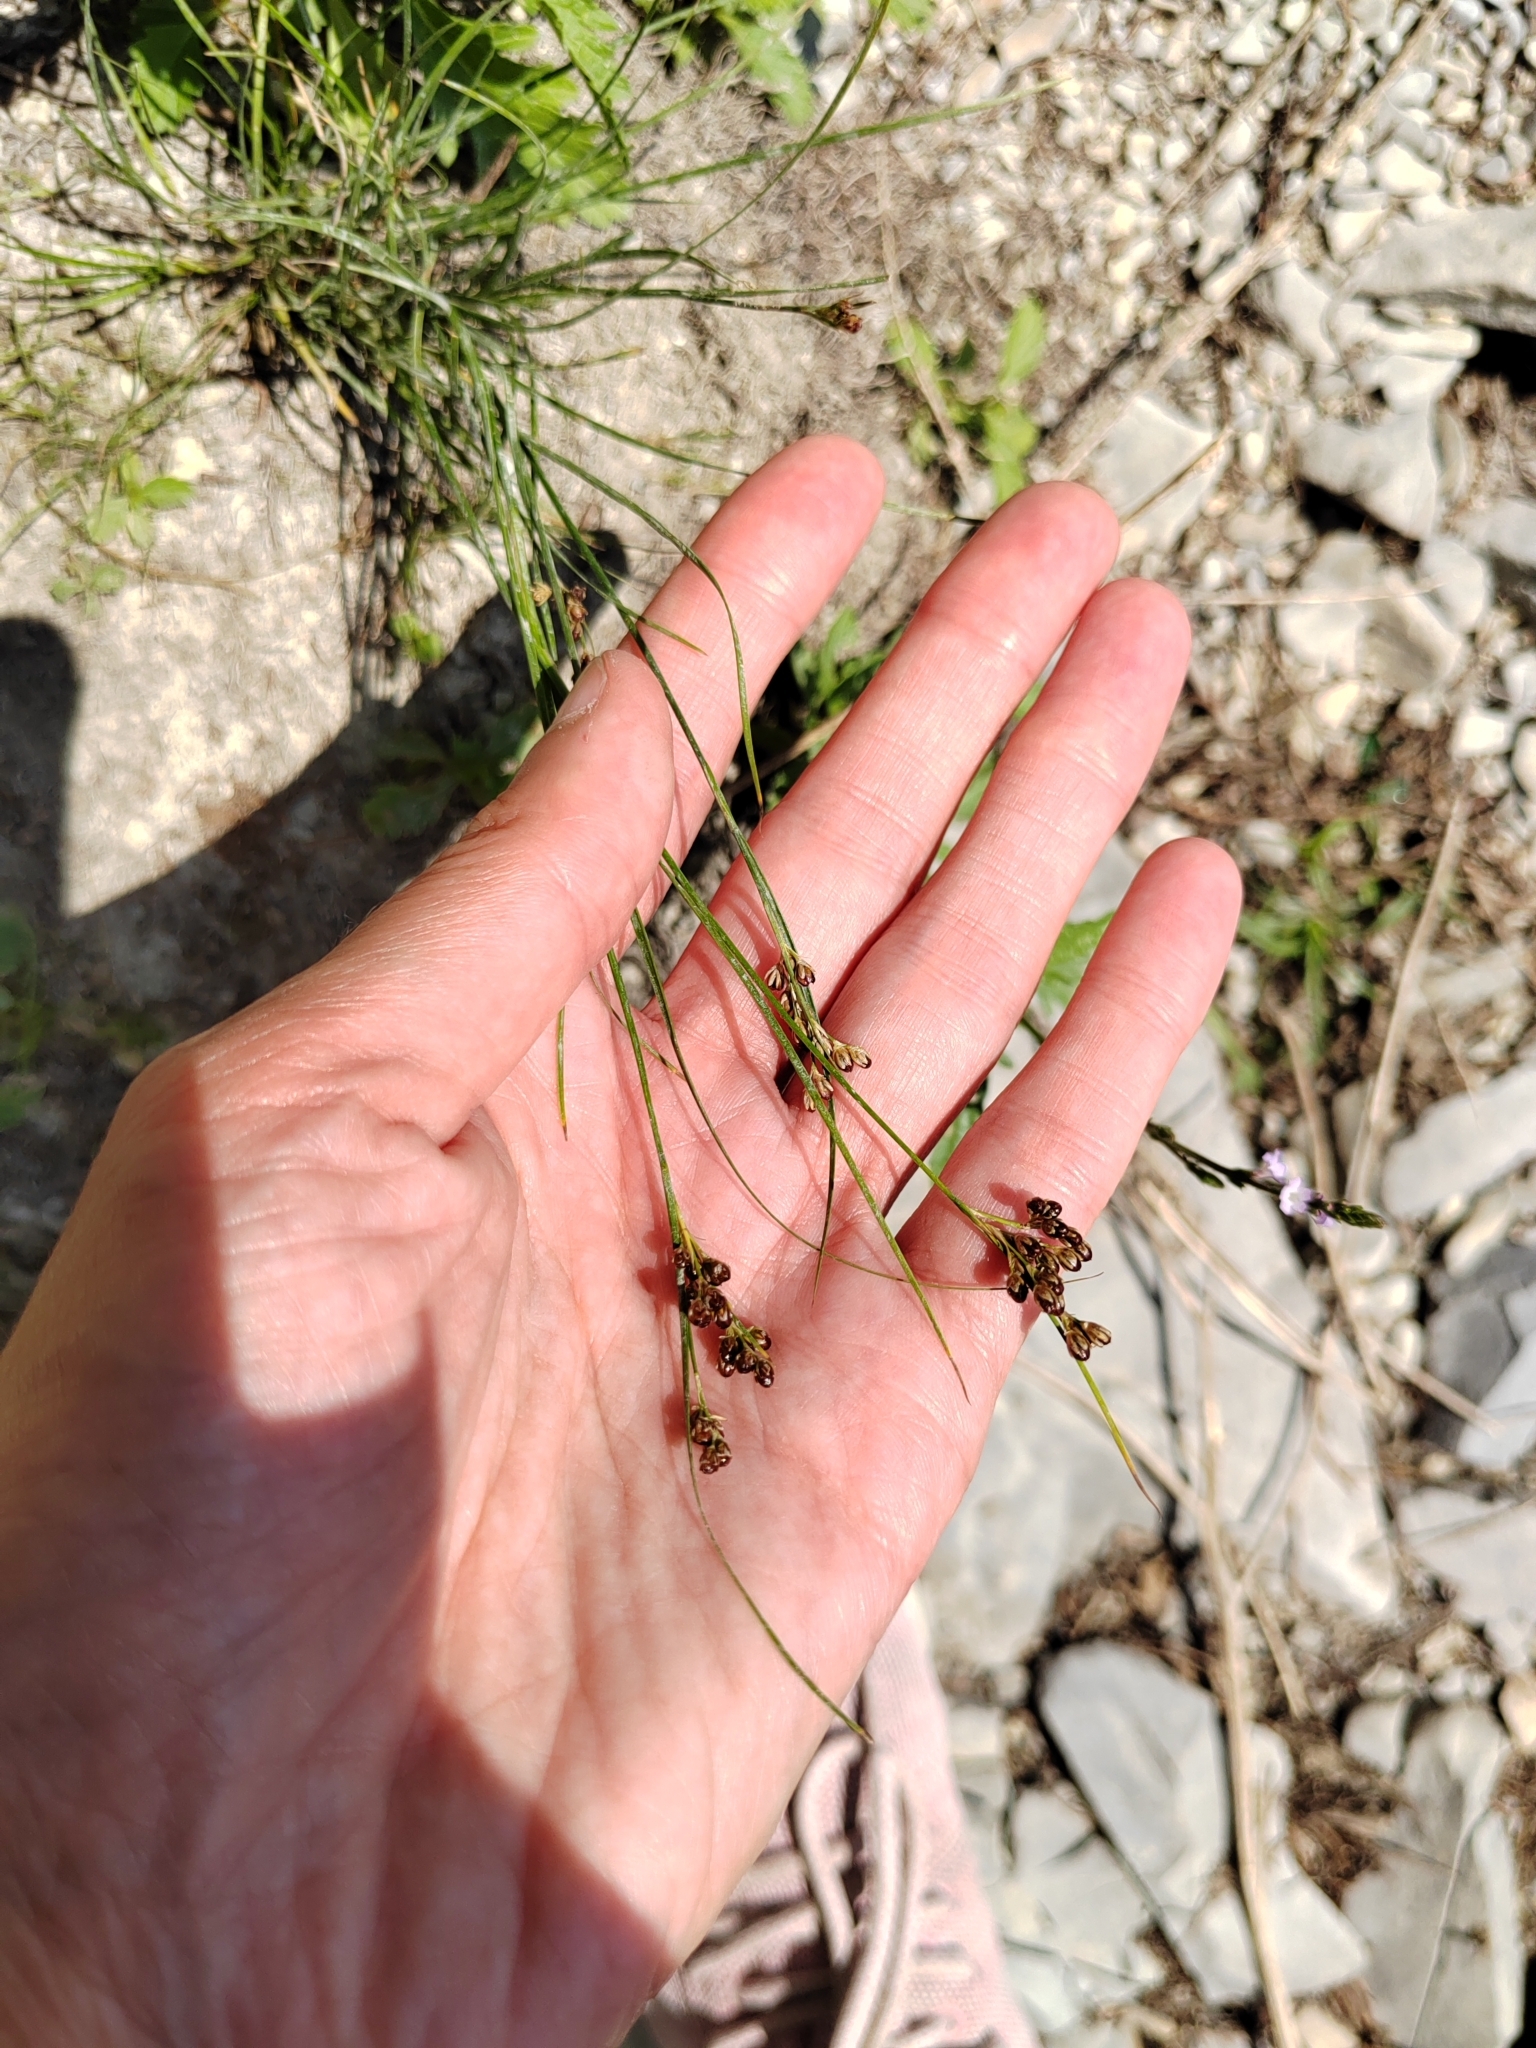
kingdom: Plantae
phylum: Tracheophyta
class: Liliopsida
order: Poales
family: Juncaceae
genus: Juncus
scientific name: Juncus compressus
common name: Round-fruited rush
